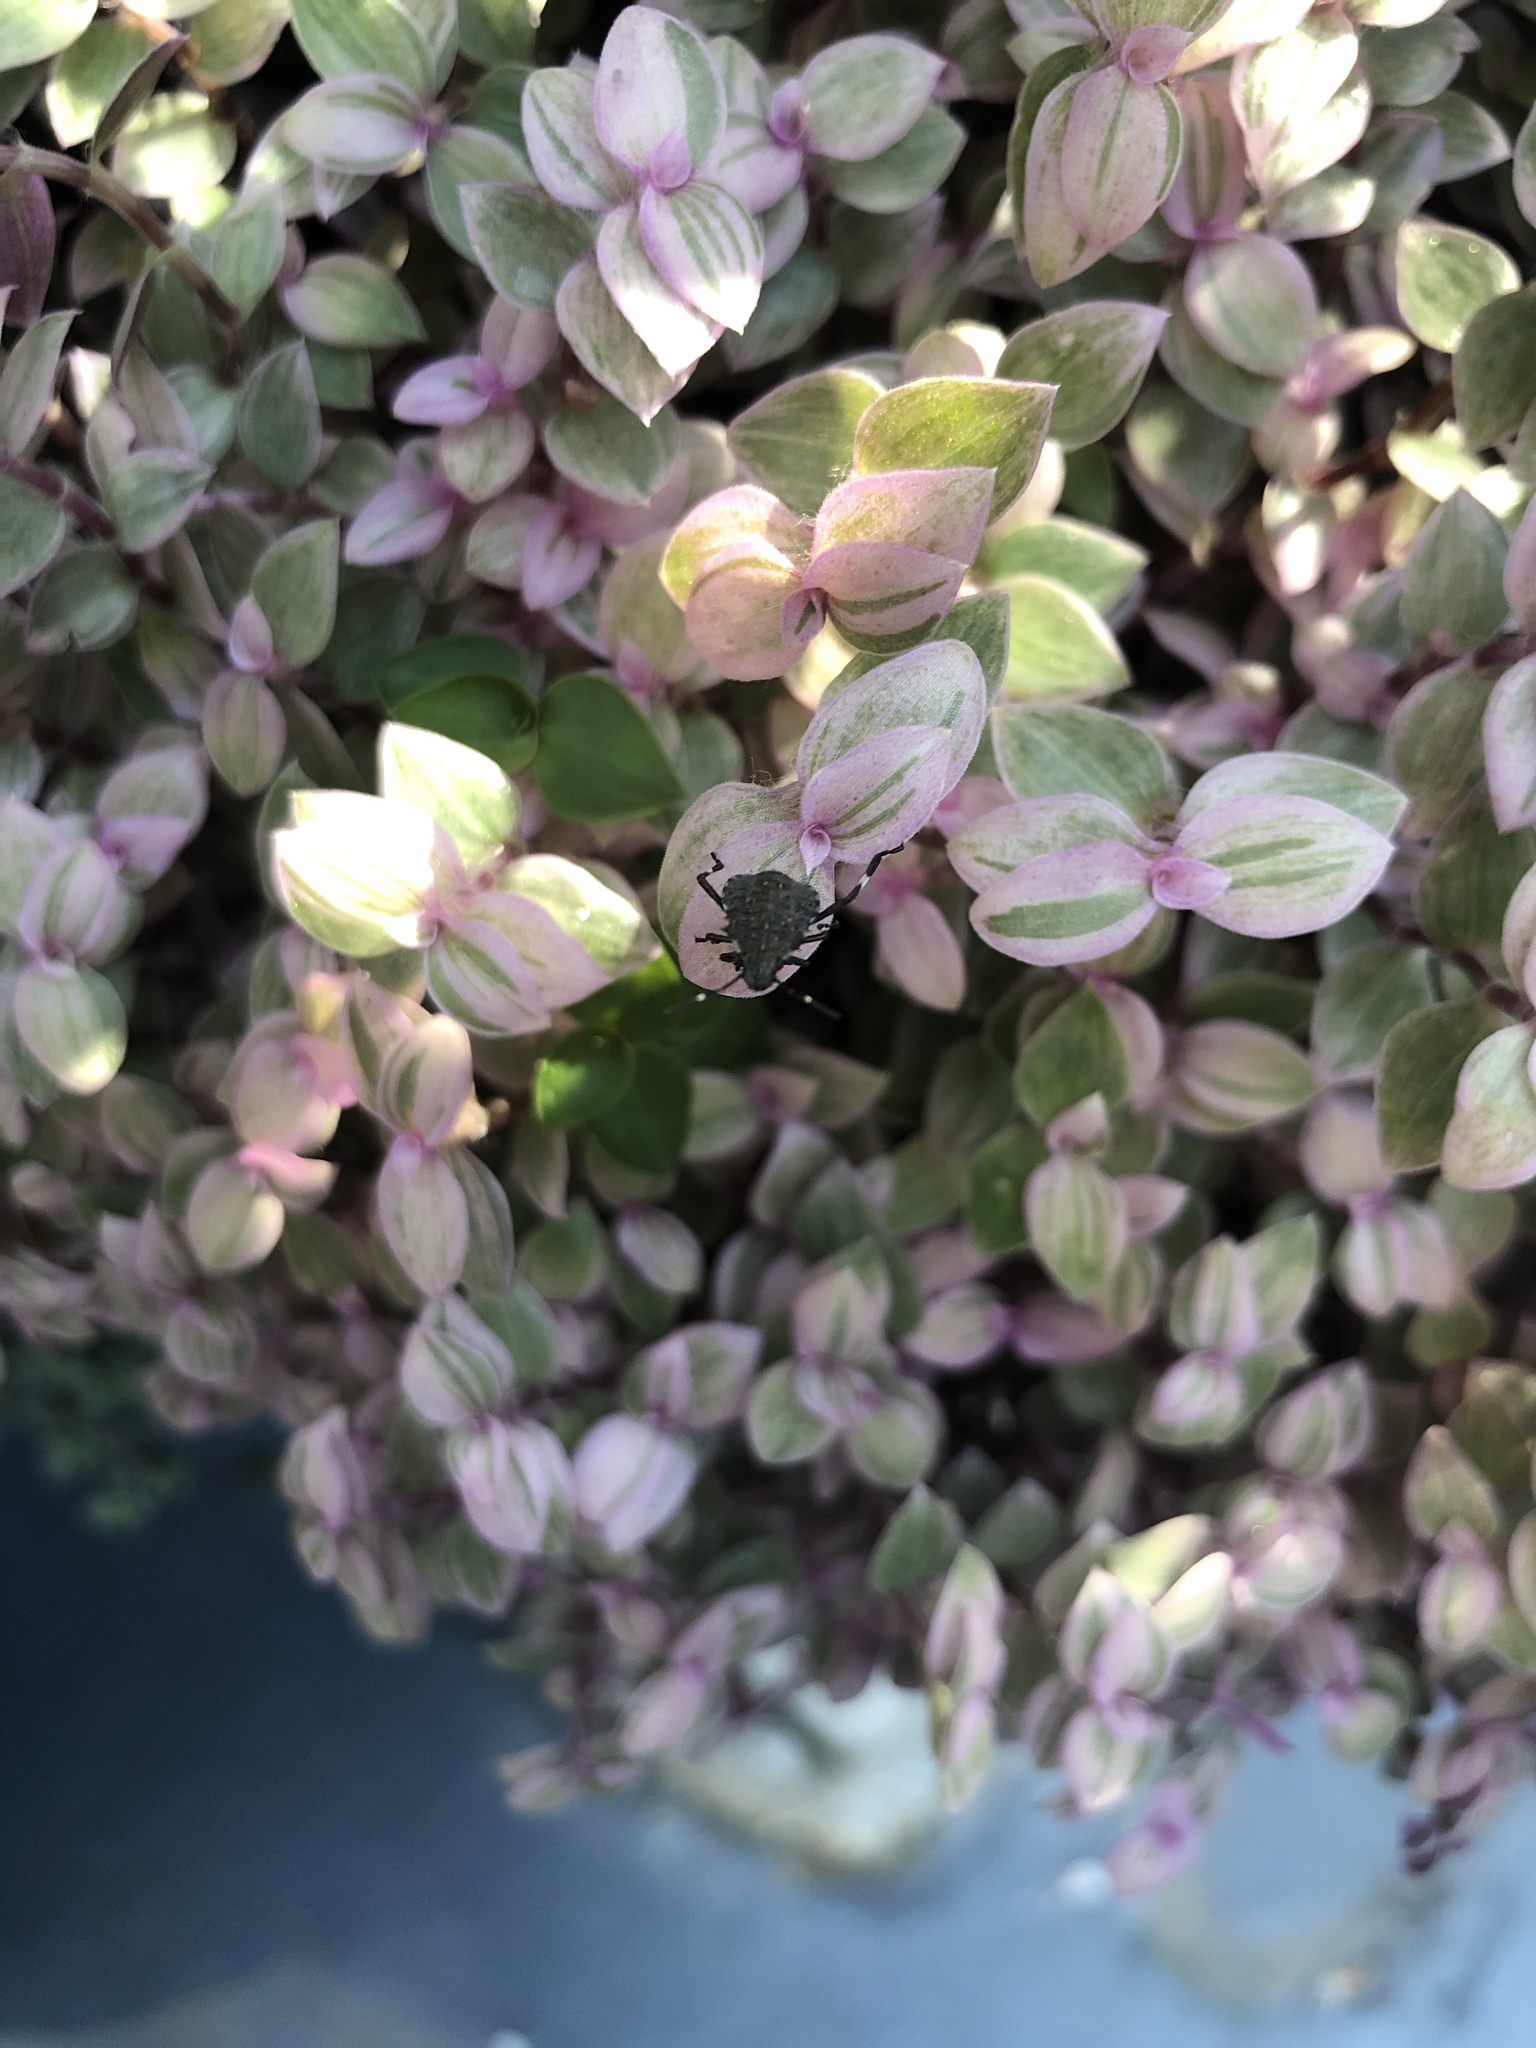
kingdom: Animalia
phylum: Arthropoda
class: Insecta
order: Hemiptera
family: Pentatomidae
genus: Halyomorpha
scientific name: Halyomorpha halys
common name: Brown marmorated stink bug
